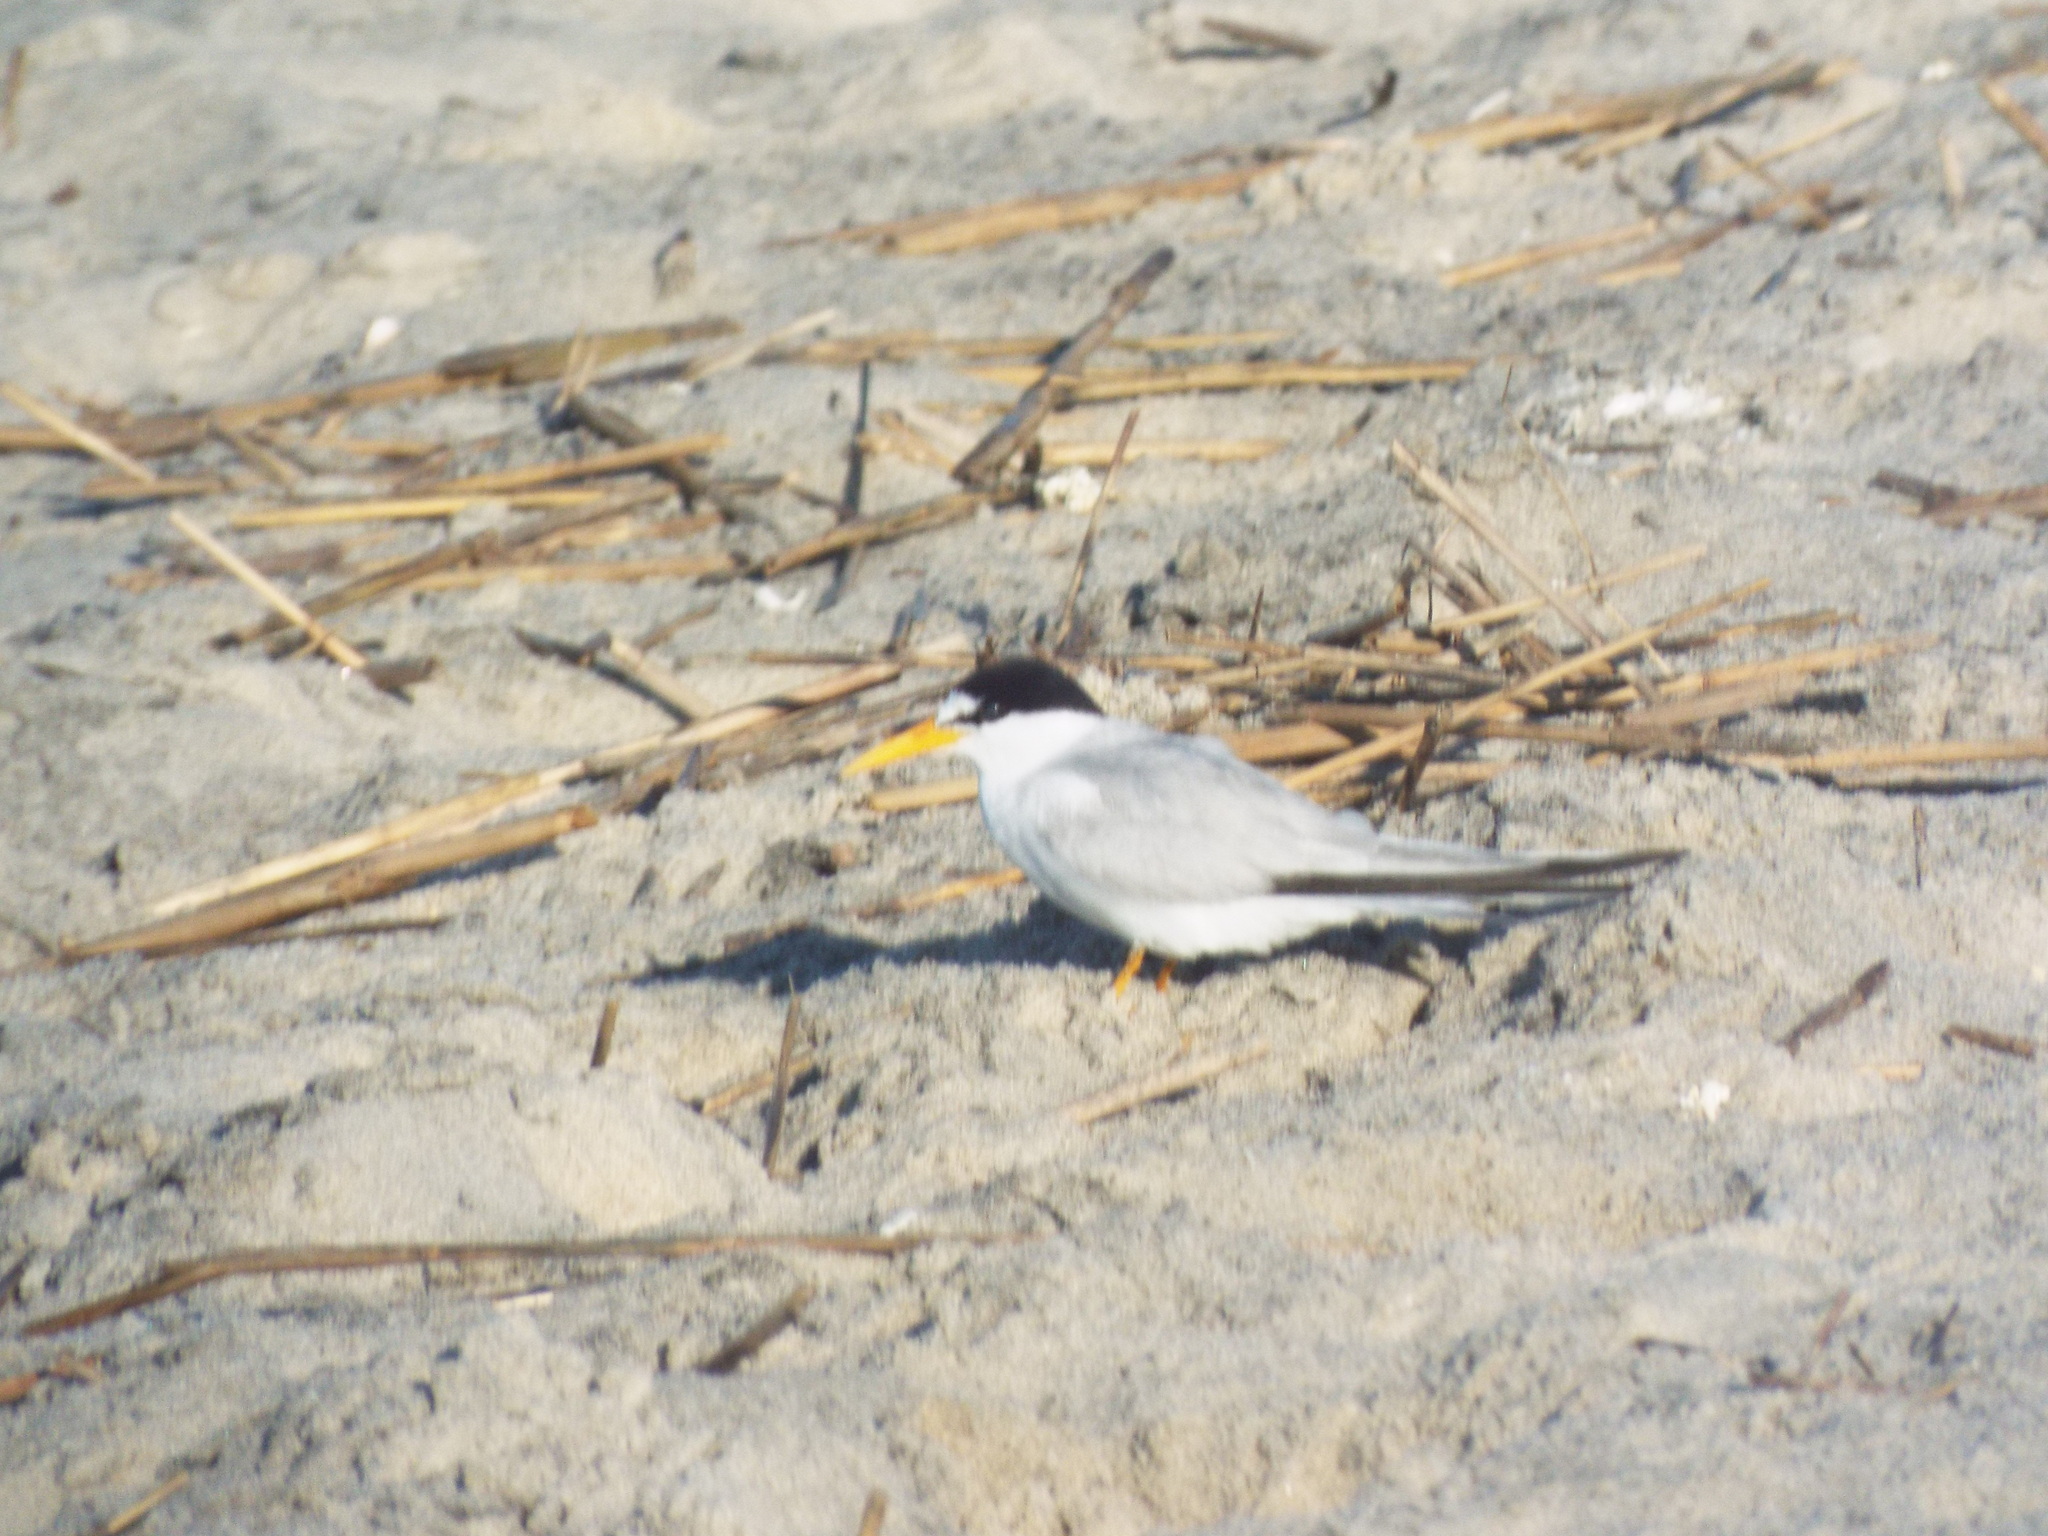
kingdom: Animalia
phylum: Chordata
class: Aves
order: Charadriiformes
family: Laridae
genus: Sternula
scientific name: Sternula antillarum
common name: Least tern
